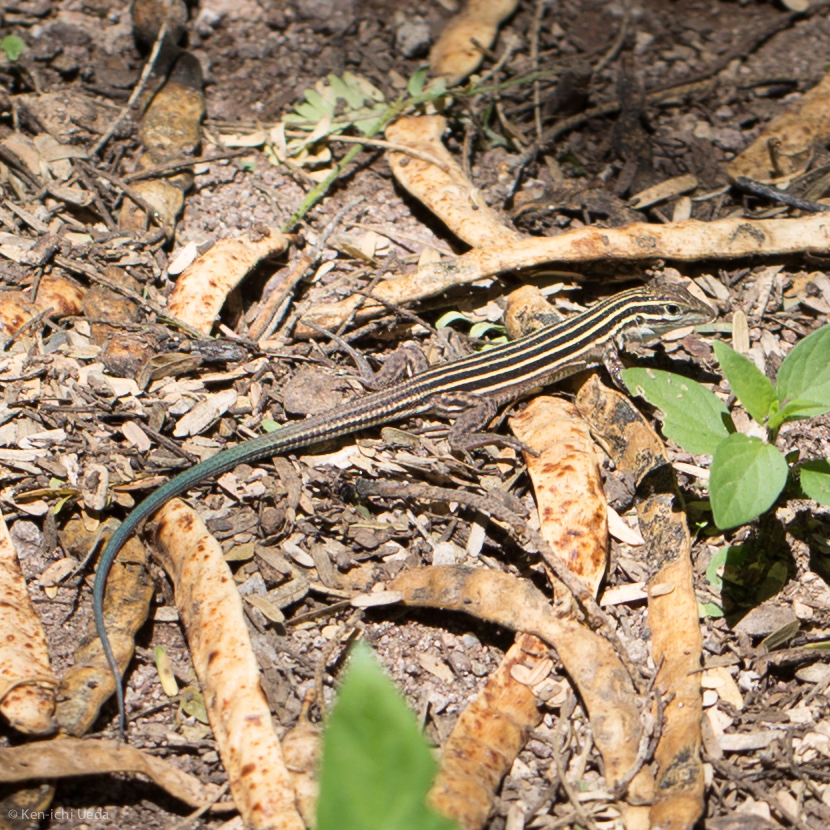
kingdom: Animalia
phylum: Chordata
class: Squamata
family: Teiidae
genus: Aspidoscelis
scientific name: Aspidoscelis uniparens
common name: Desert grassland whiptail
